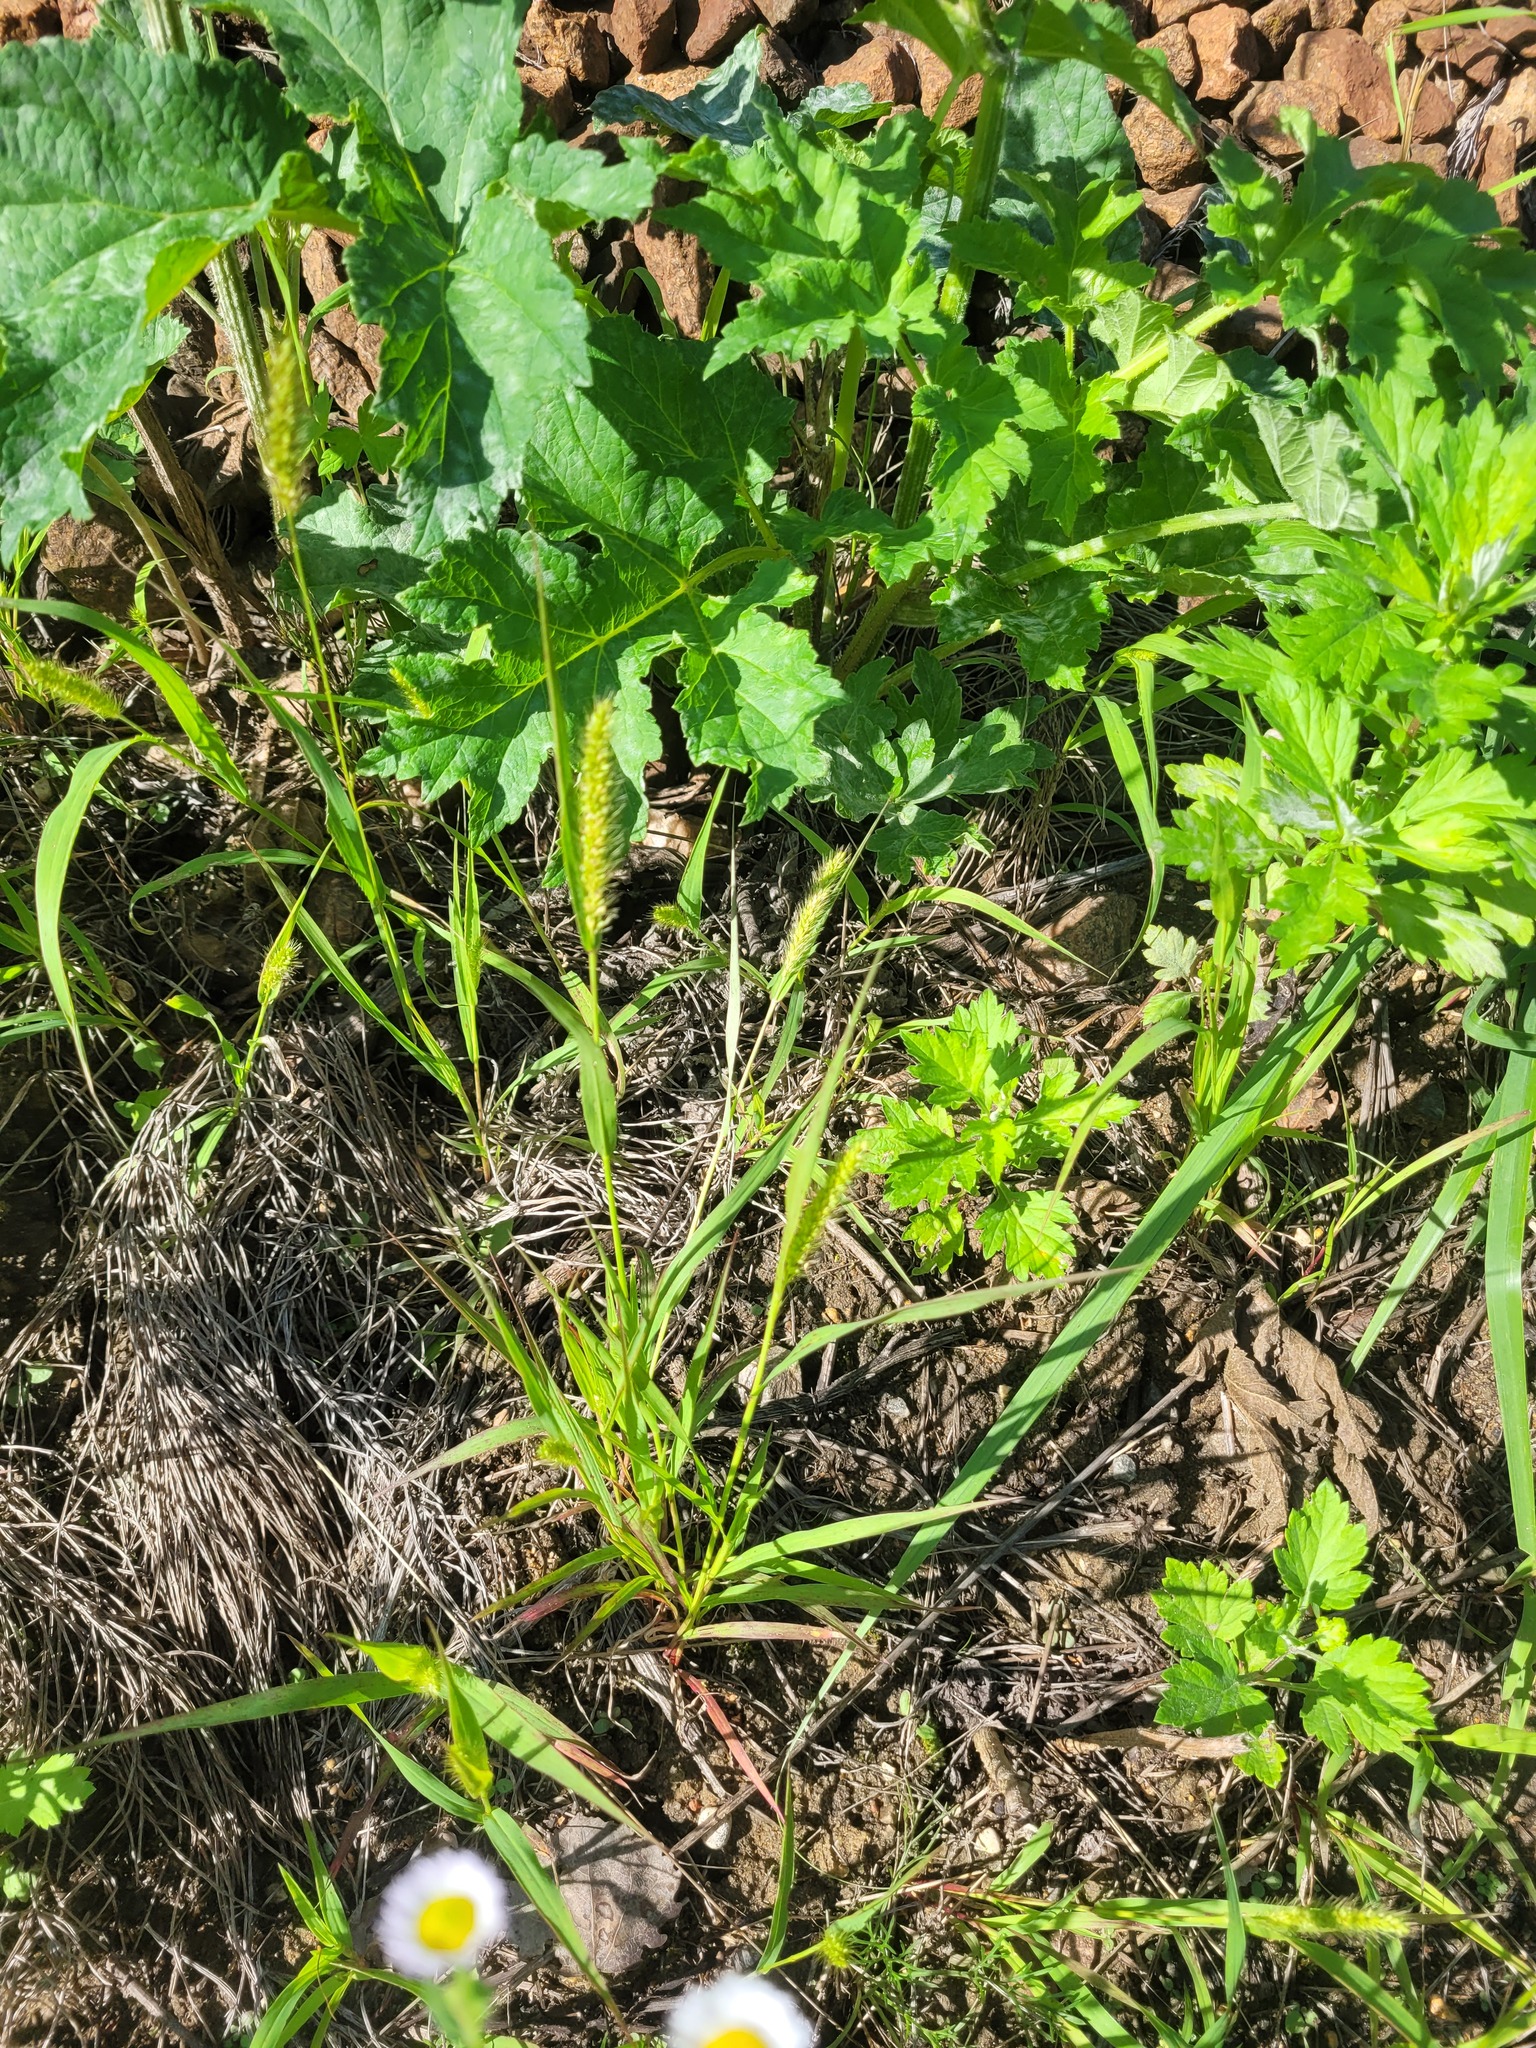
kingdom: Plantae
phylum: Tracheophyta
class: Liliopsida
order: Poales
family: Poaceae
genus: Setaria
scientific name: Setaria viridis
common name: Green bristlegrass
